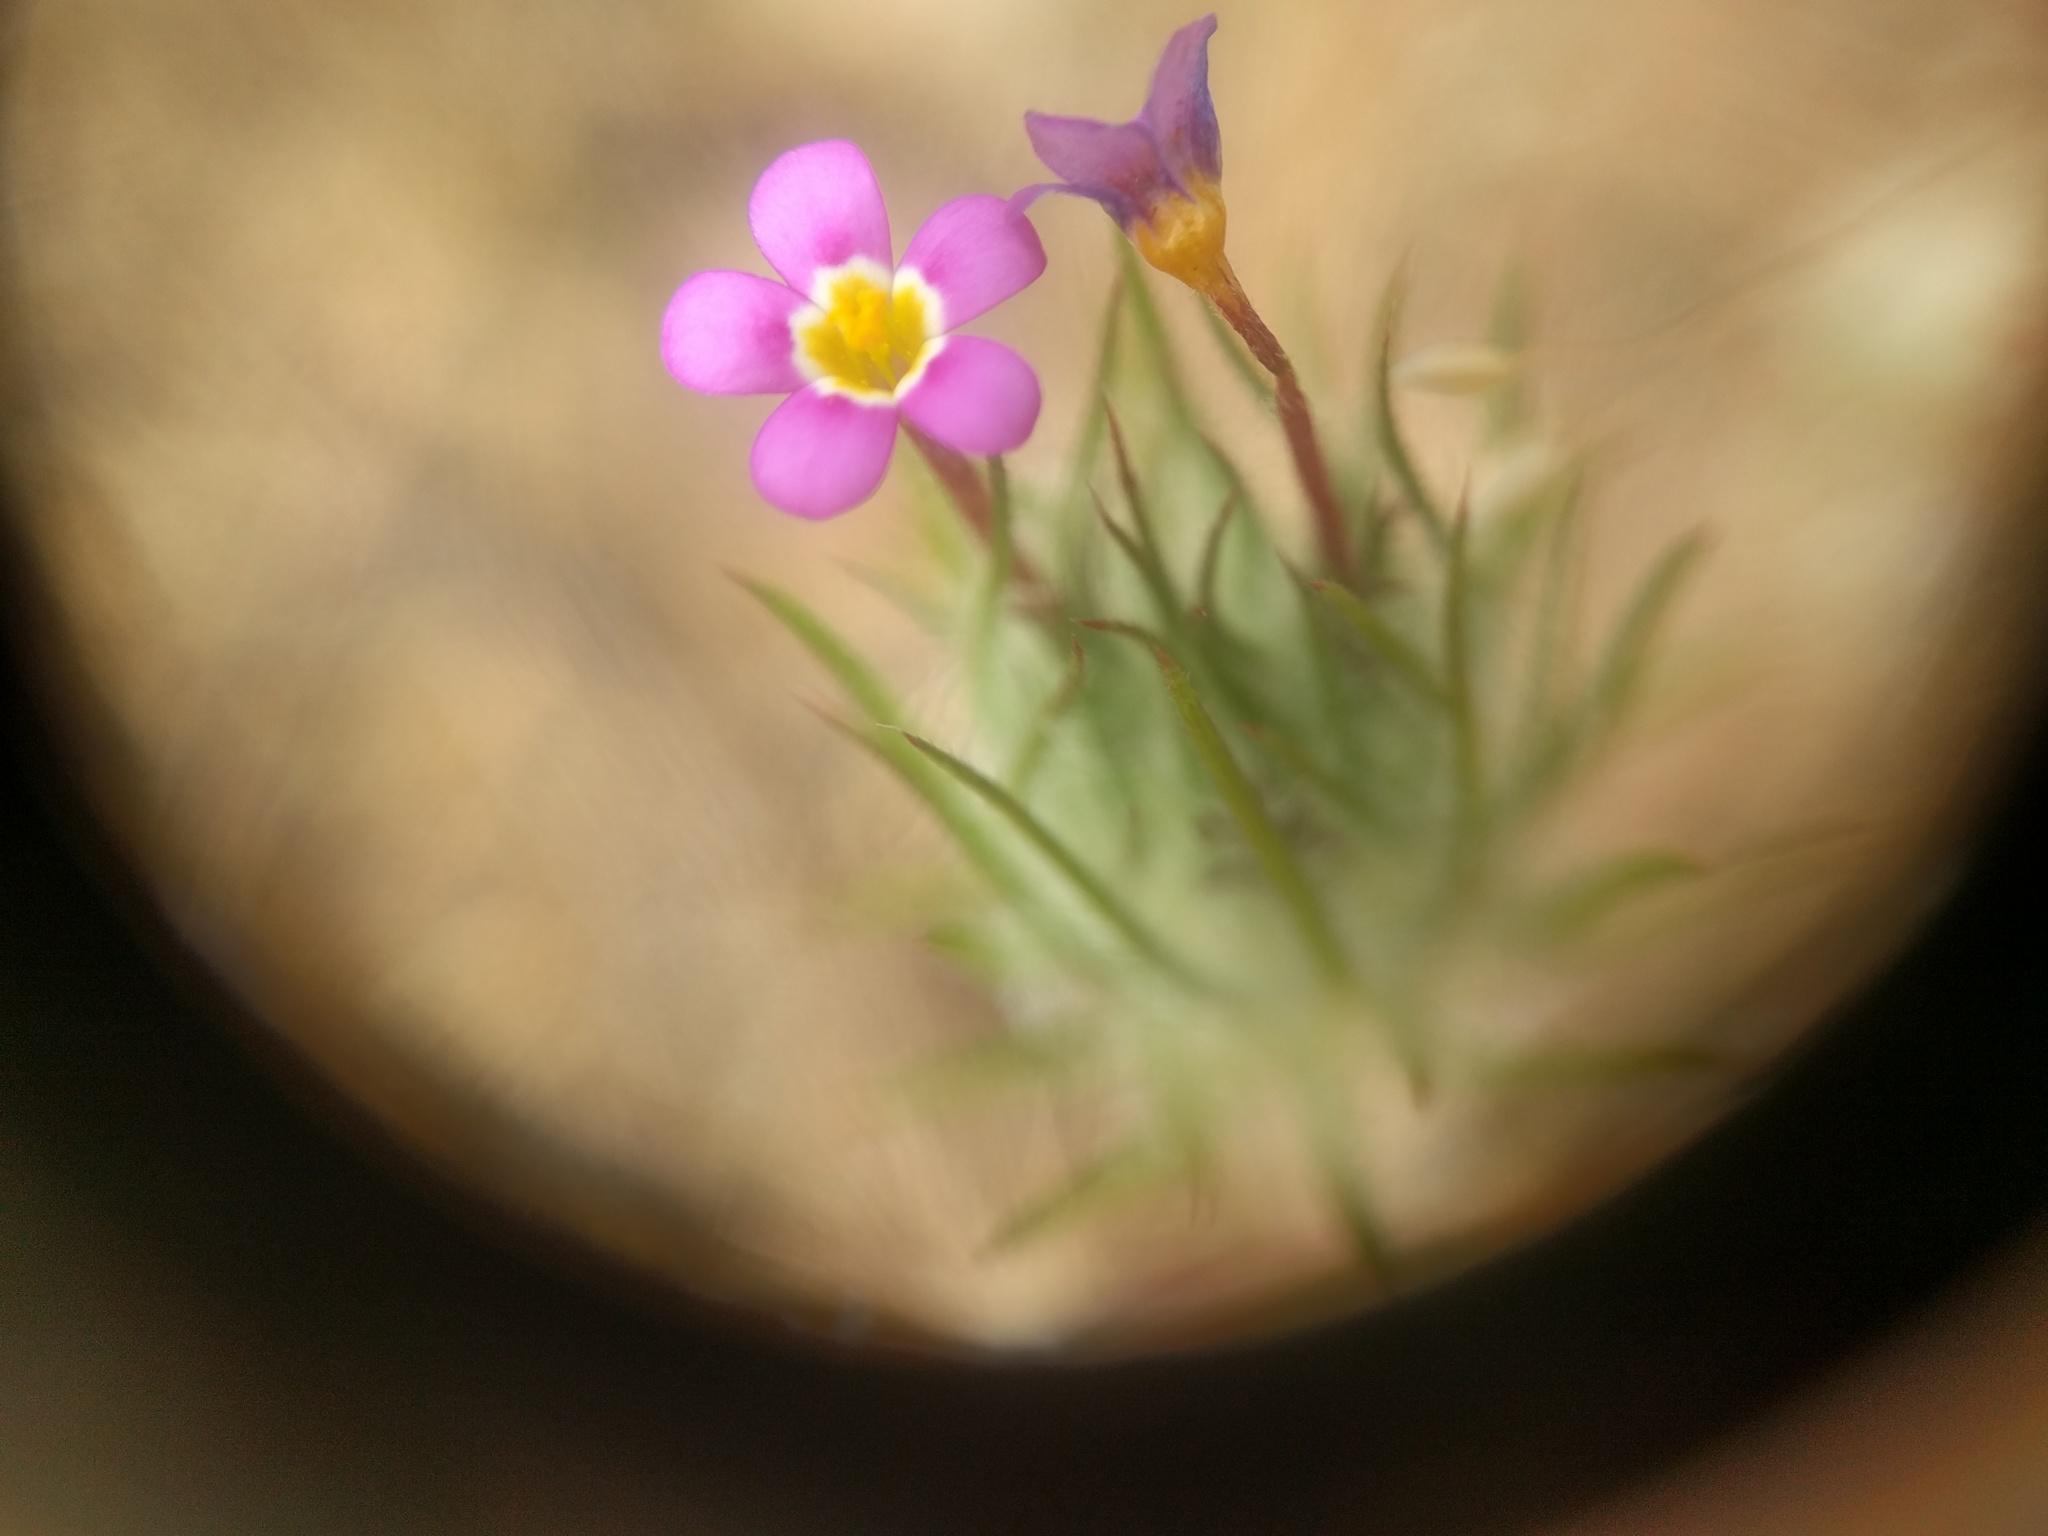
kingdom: Plantae
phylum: Tracheophyta
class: Magnoliopsida
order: Ericales
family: Polemoniaceae
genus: Leptosiphon
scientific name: Leptosiphon ciliatus
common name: Whiskerbrush
